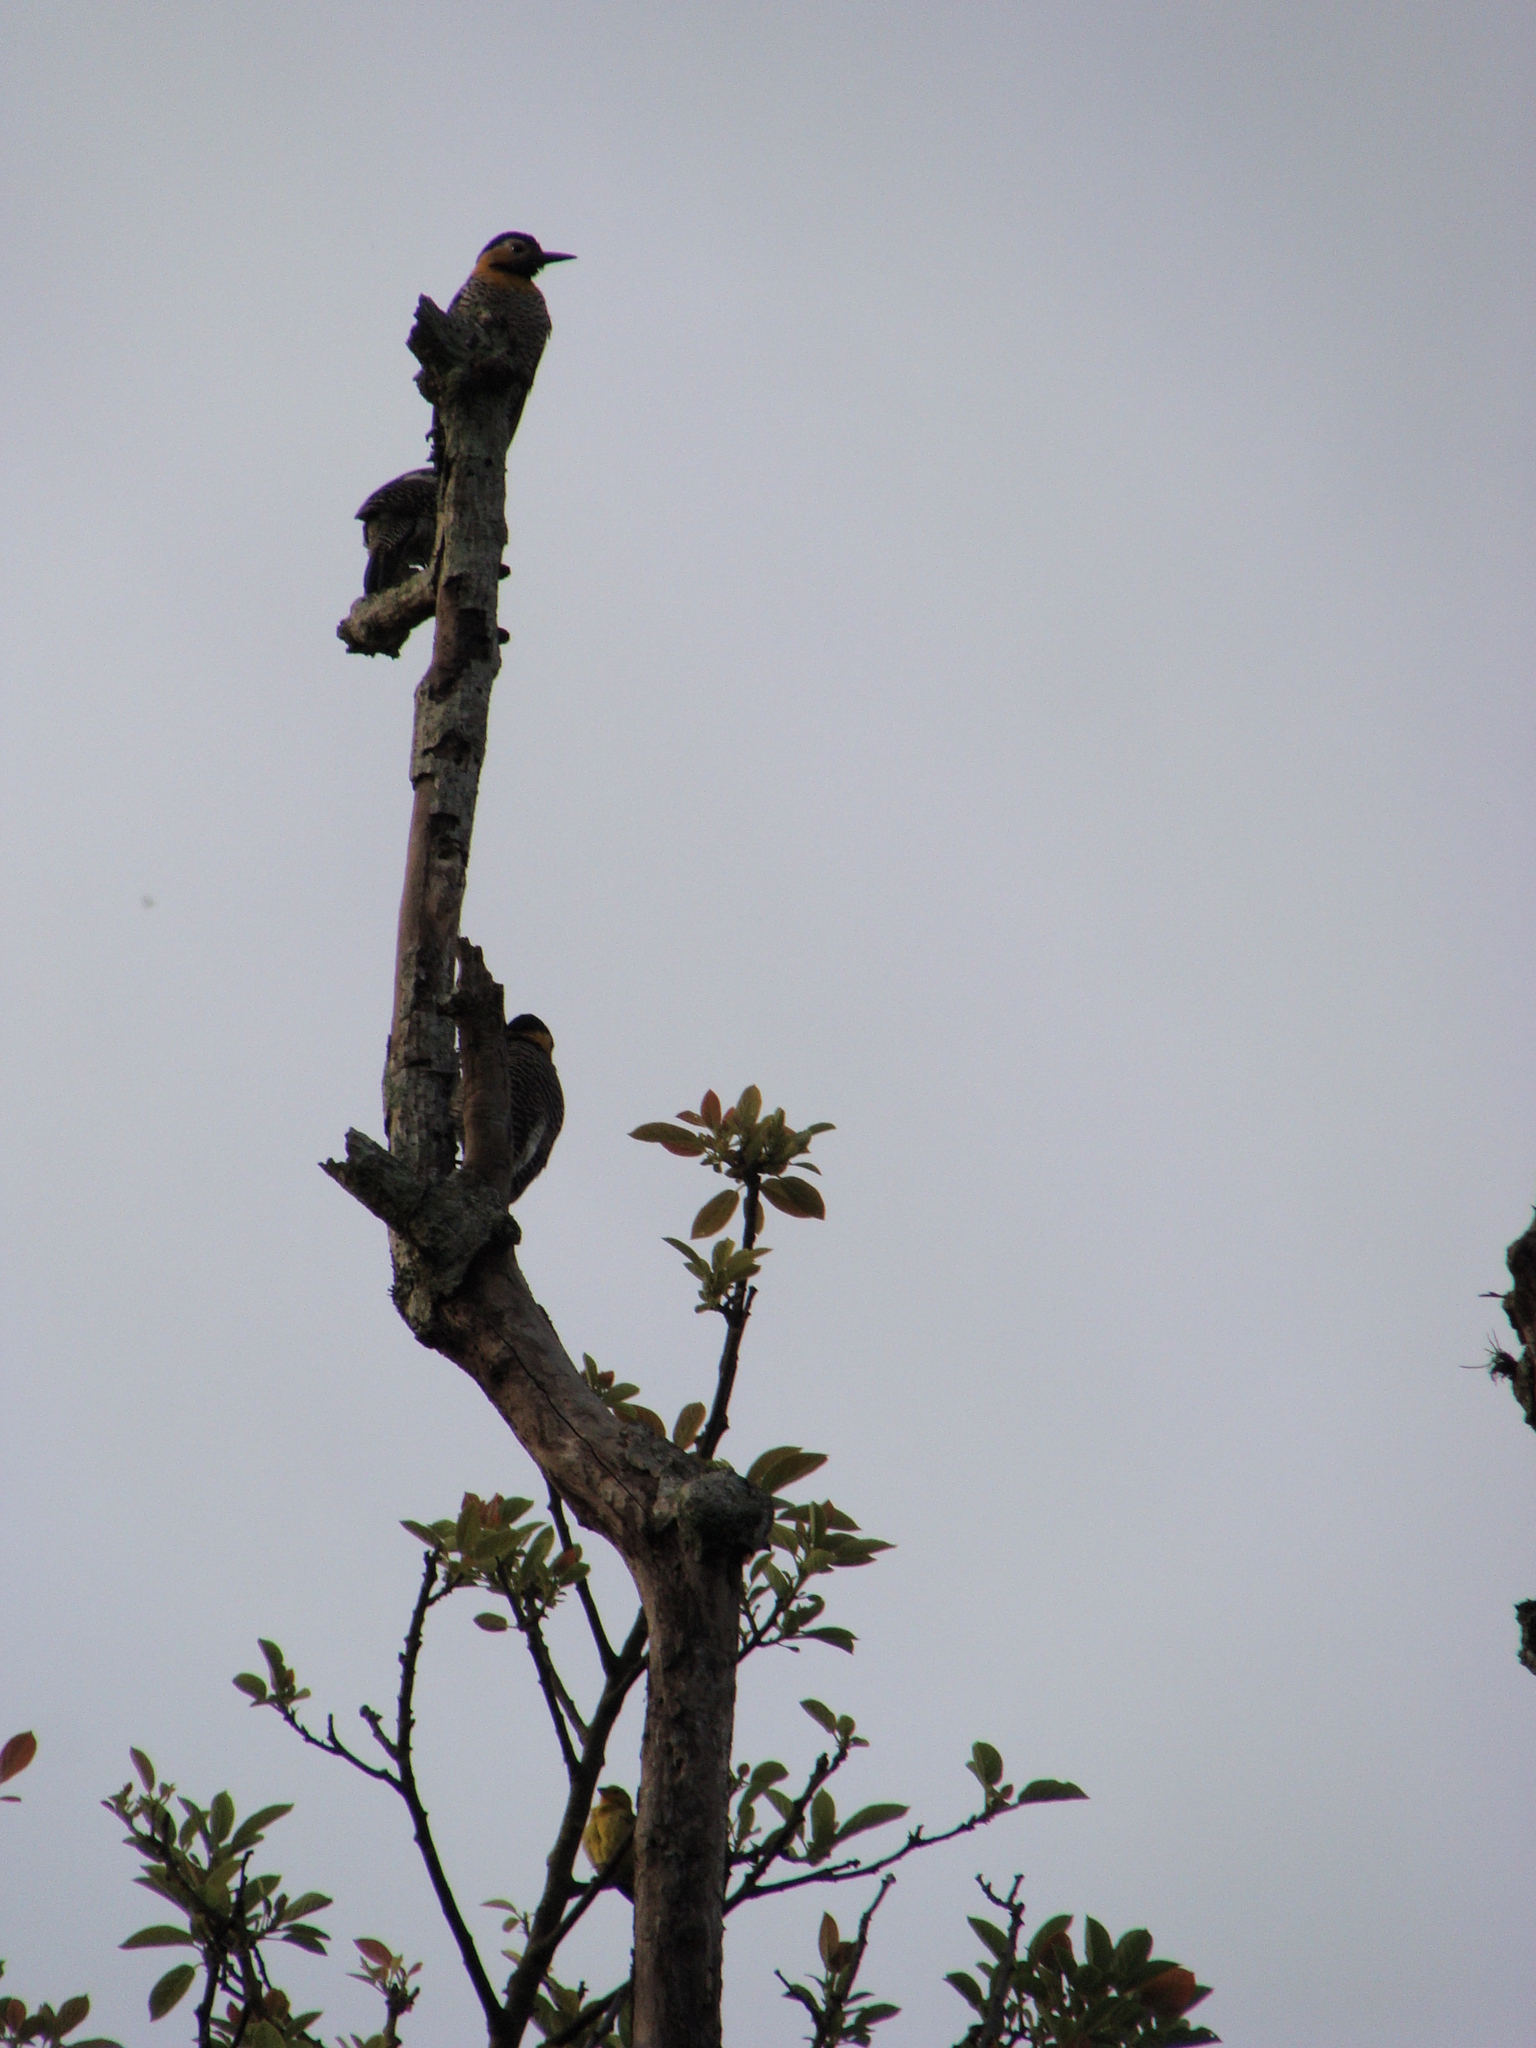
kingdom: Animalia
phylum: Chordata
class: Aves
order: Piciformes
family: Picidae
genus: Colaptes
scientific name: Colaptes campestris
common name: Campo flicker
